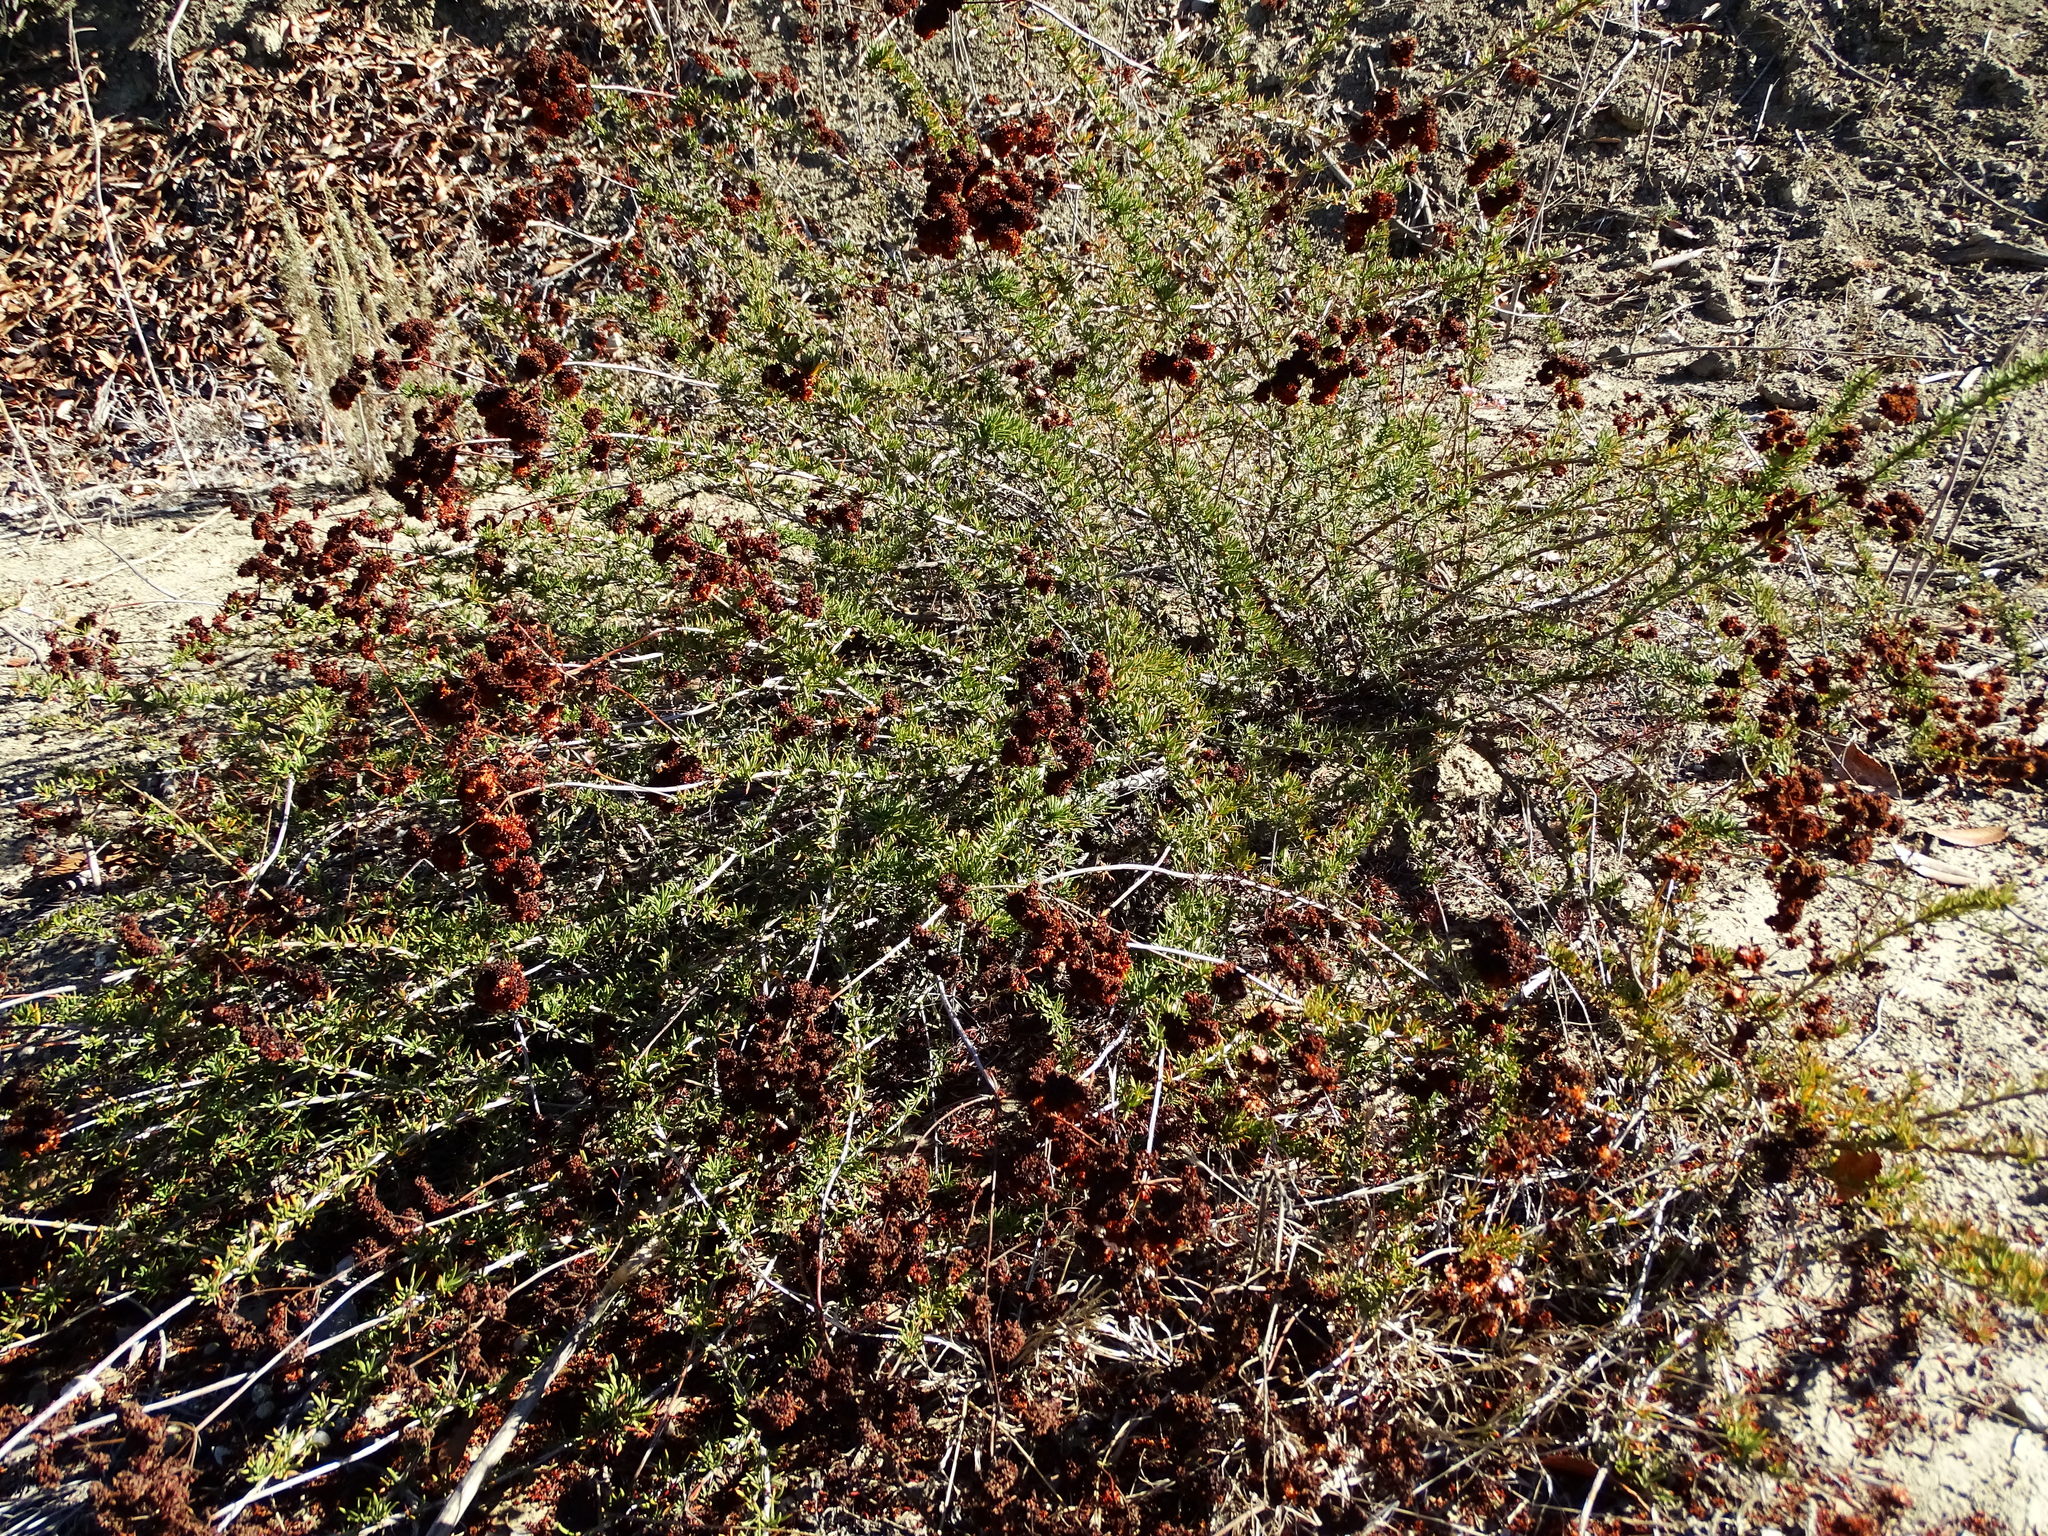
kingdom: Plantae
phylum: Tracheophyta
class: Magnoliopsida
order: Caryophyllales
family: Polygonaceae
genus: Eriogonum
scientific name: Eriogonum fasciculatum
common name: California wild buckwheat
